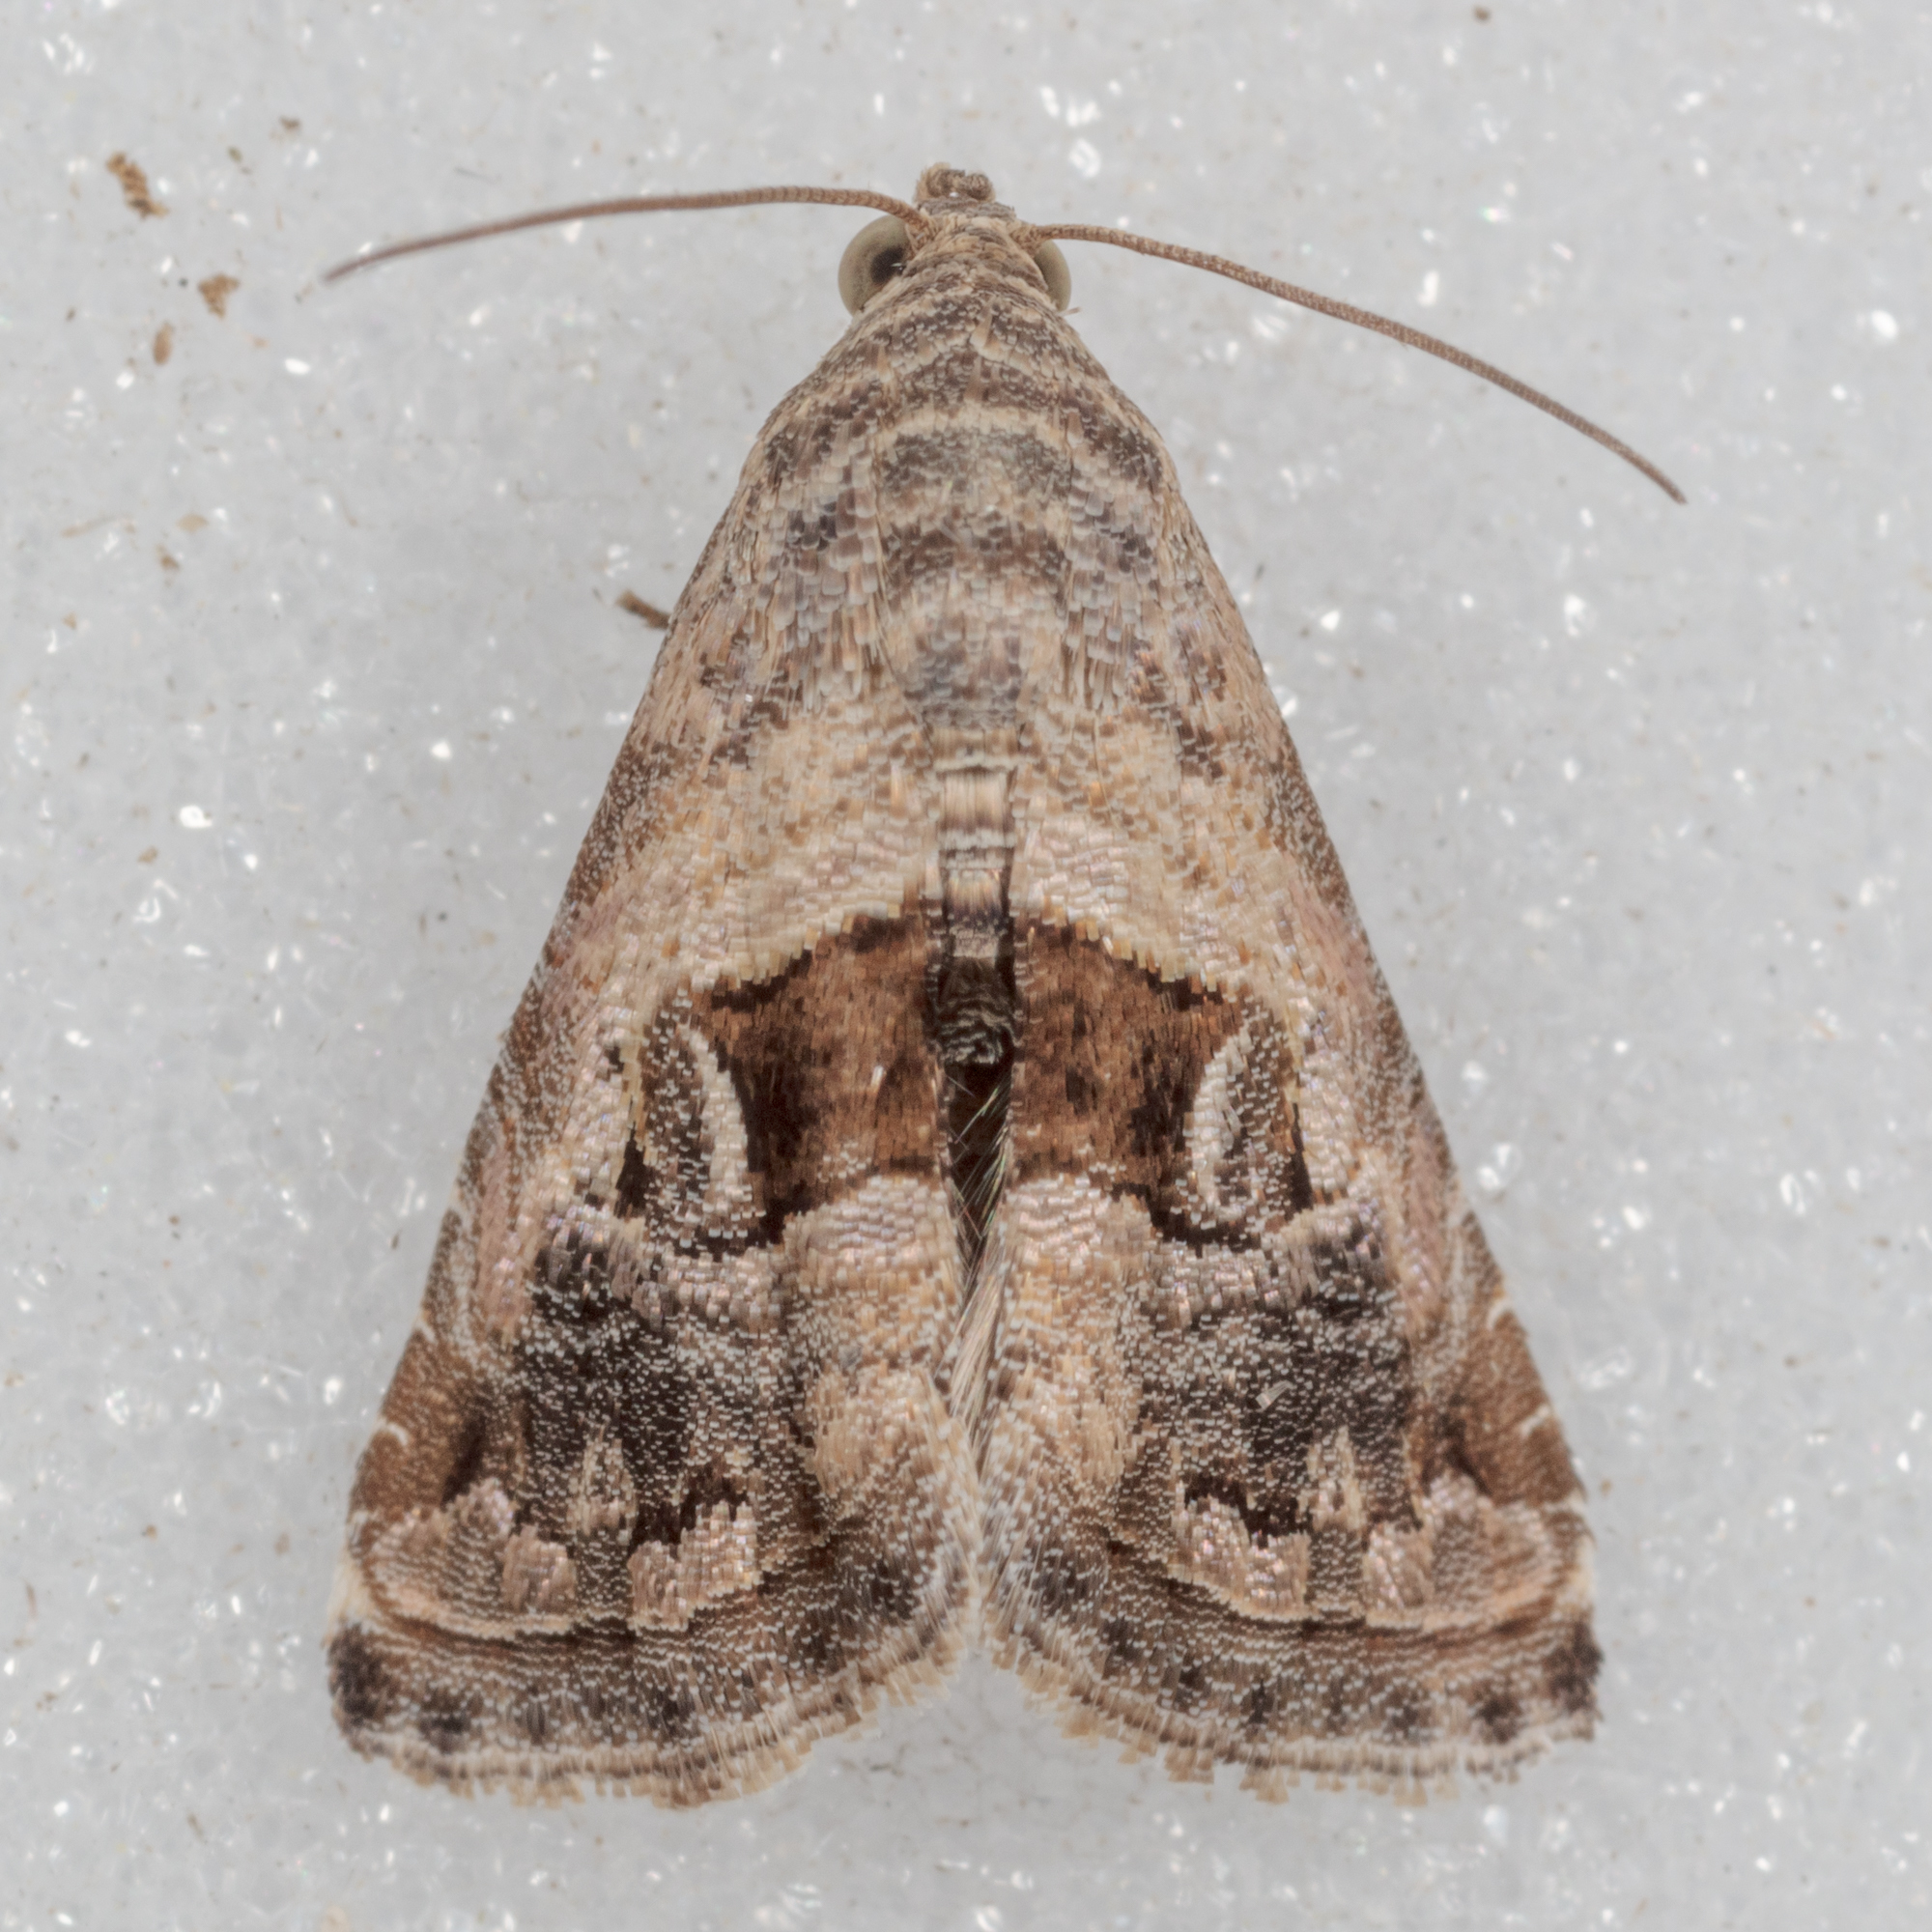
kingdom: Animalia
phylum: Arthropoda
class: Insecta
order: Lepidoptera
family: Noctuidae
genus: Tripudia
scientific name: Tripudia quadrifera
